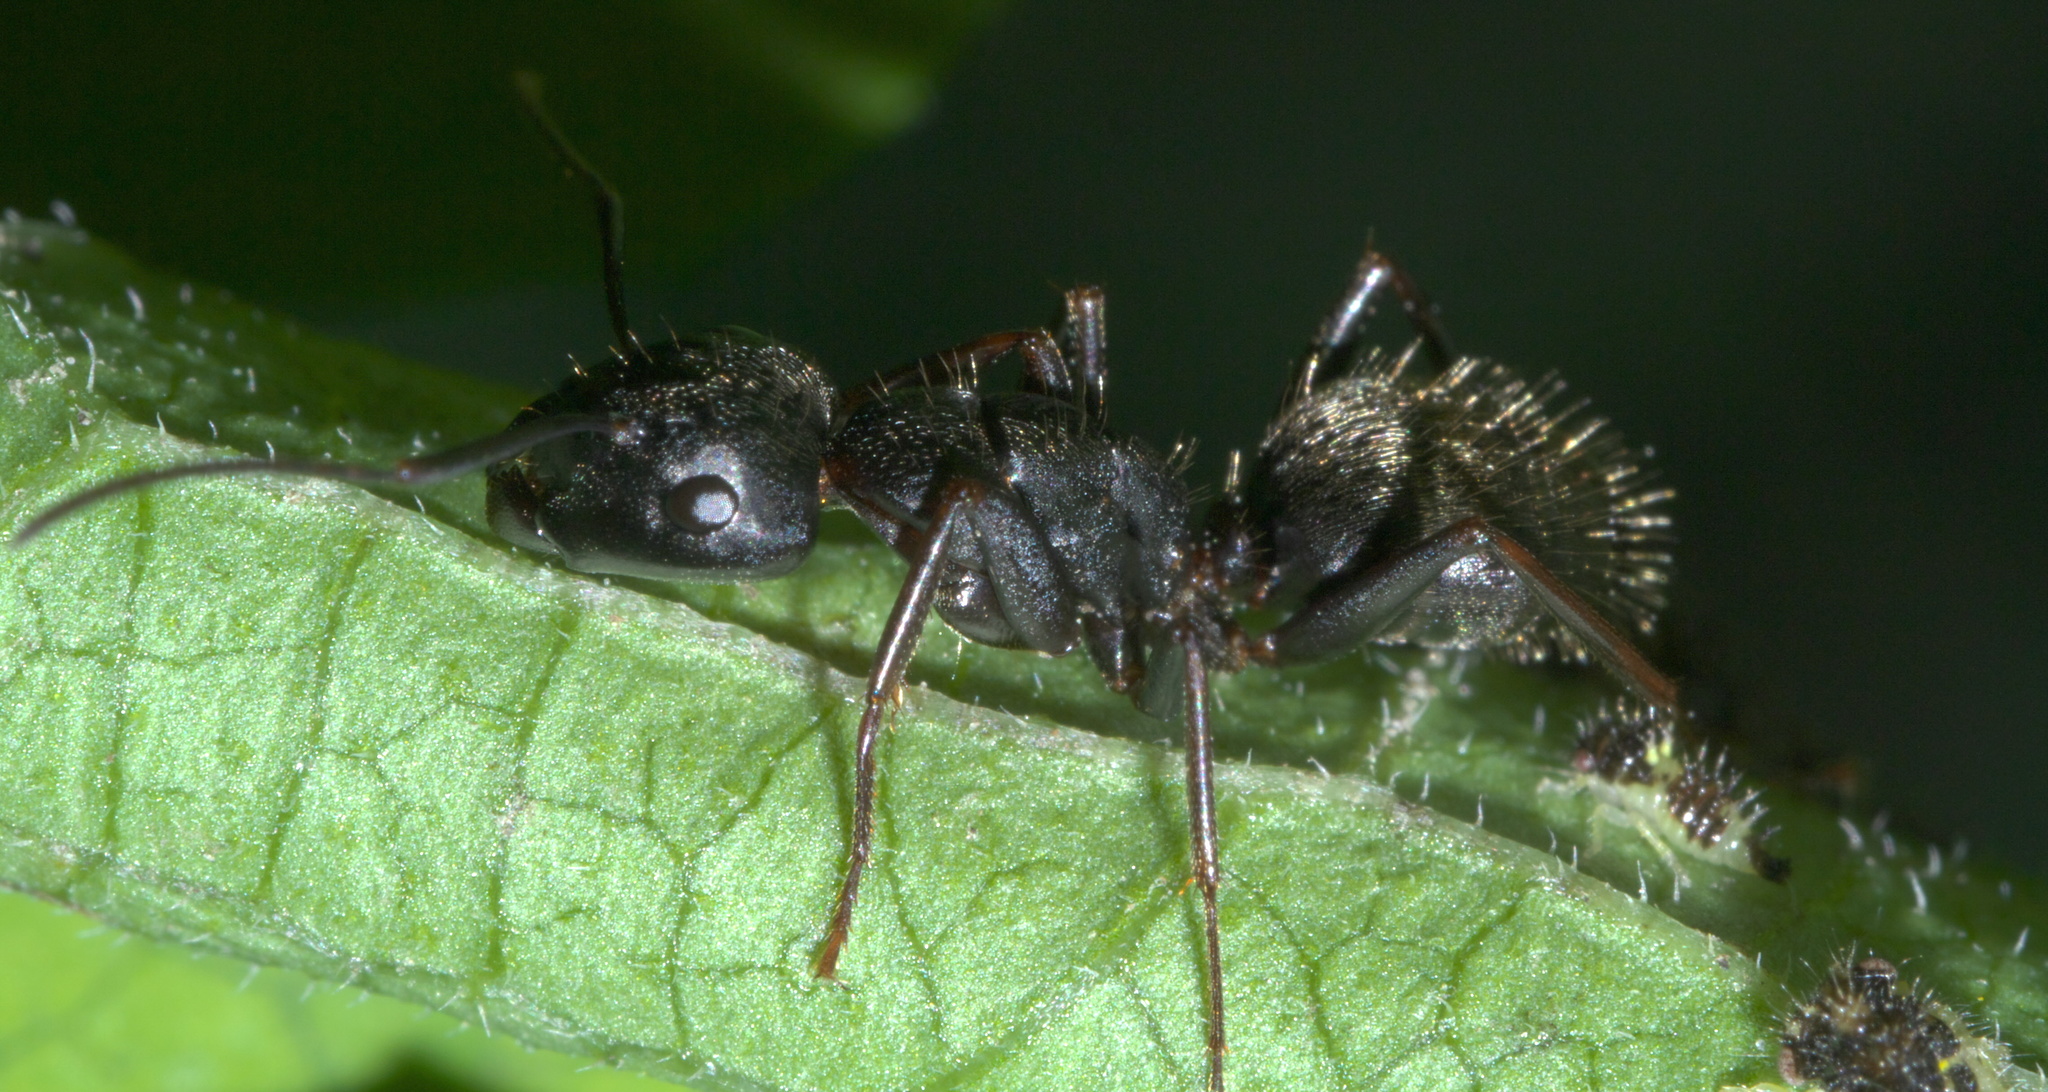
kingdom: Animalia
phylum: Arthropoda
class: Insecta
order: Hymenoptera
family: Formicidae
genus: Camponotus
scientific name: Camponotus pennsylvanicus
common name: Black carpenter ant
